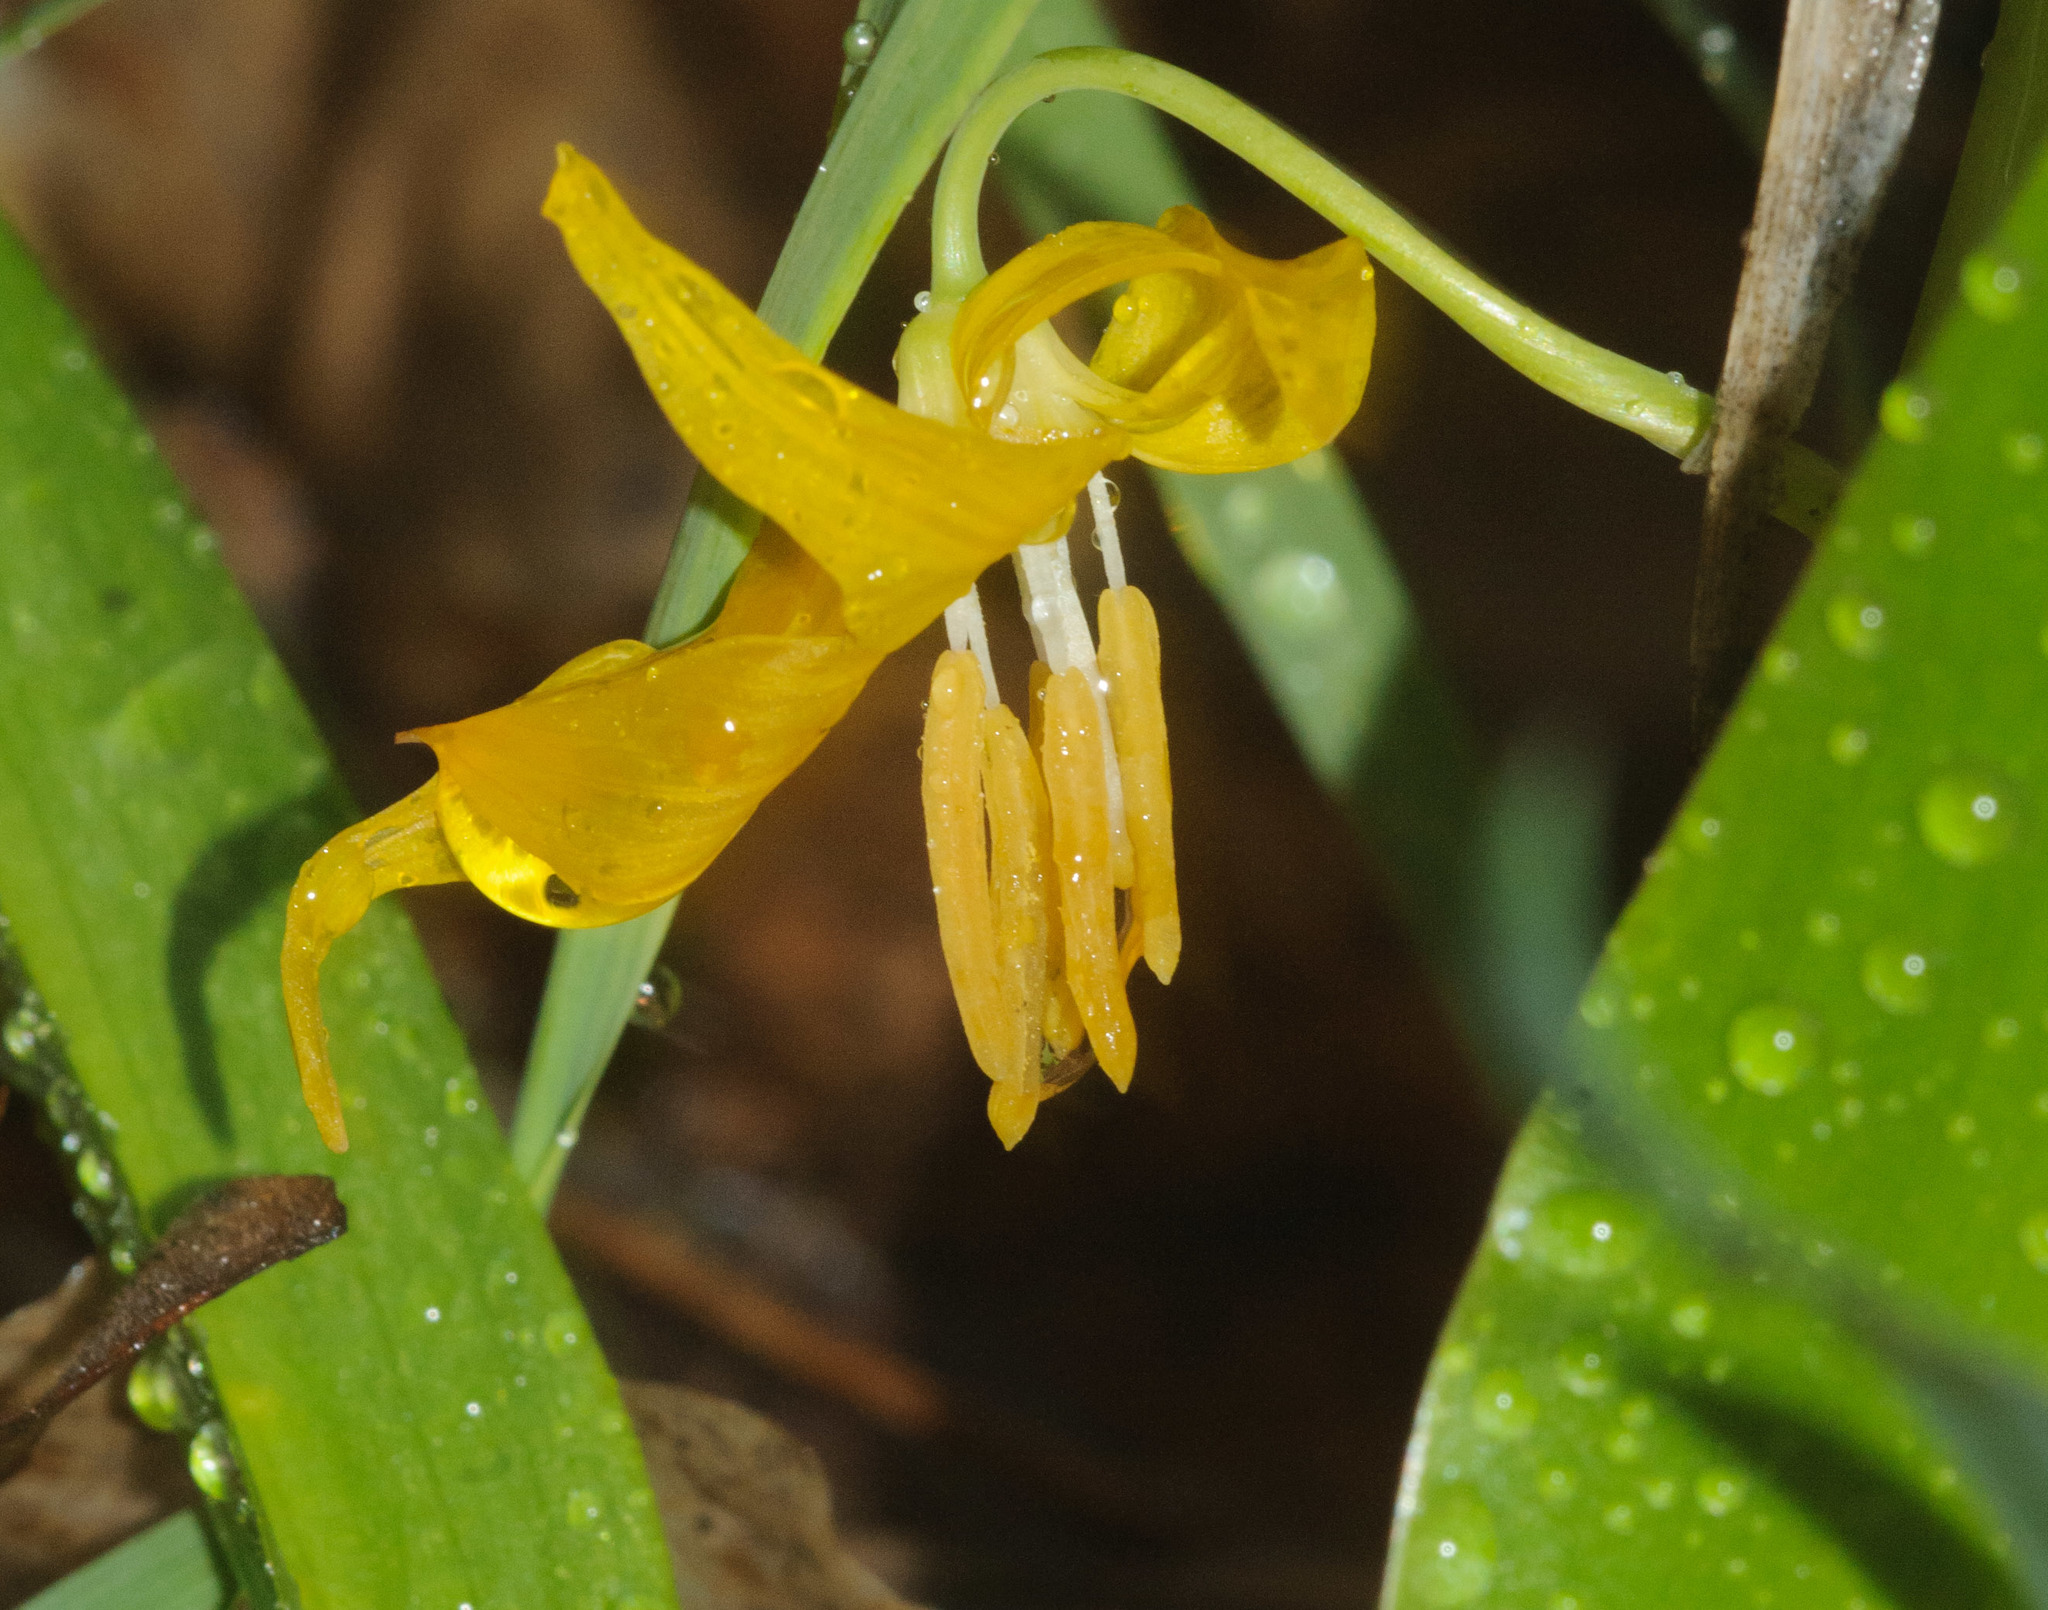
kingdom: Plantae
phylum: Tracheophyta
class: Liliopsida
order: Liliales
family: Liliaceae
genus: Erythronium
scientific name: Erythronium grandiflorum
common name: Avalanche-lily
